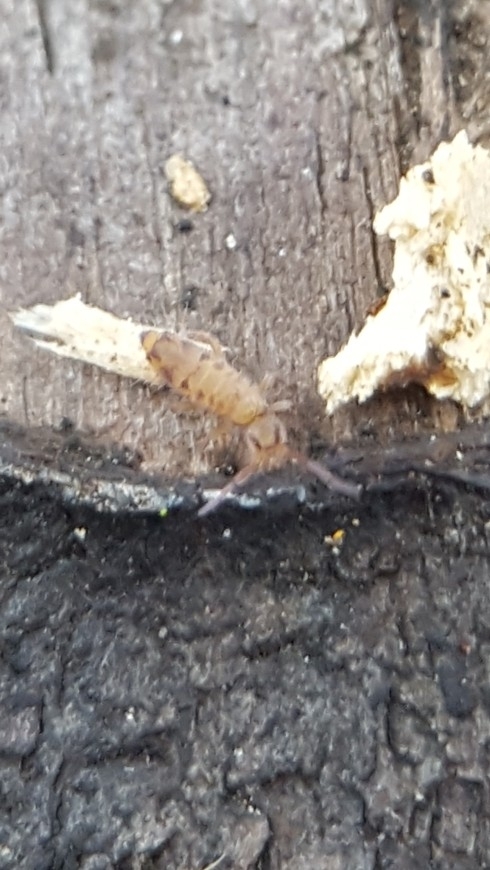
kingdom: Animalia
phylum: Arthropoda
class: Collembola
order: Entomobryomorpha
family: Entomobryidae
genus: Entomobrya
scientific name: Entomobrya multifasciata
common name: Springtail
